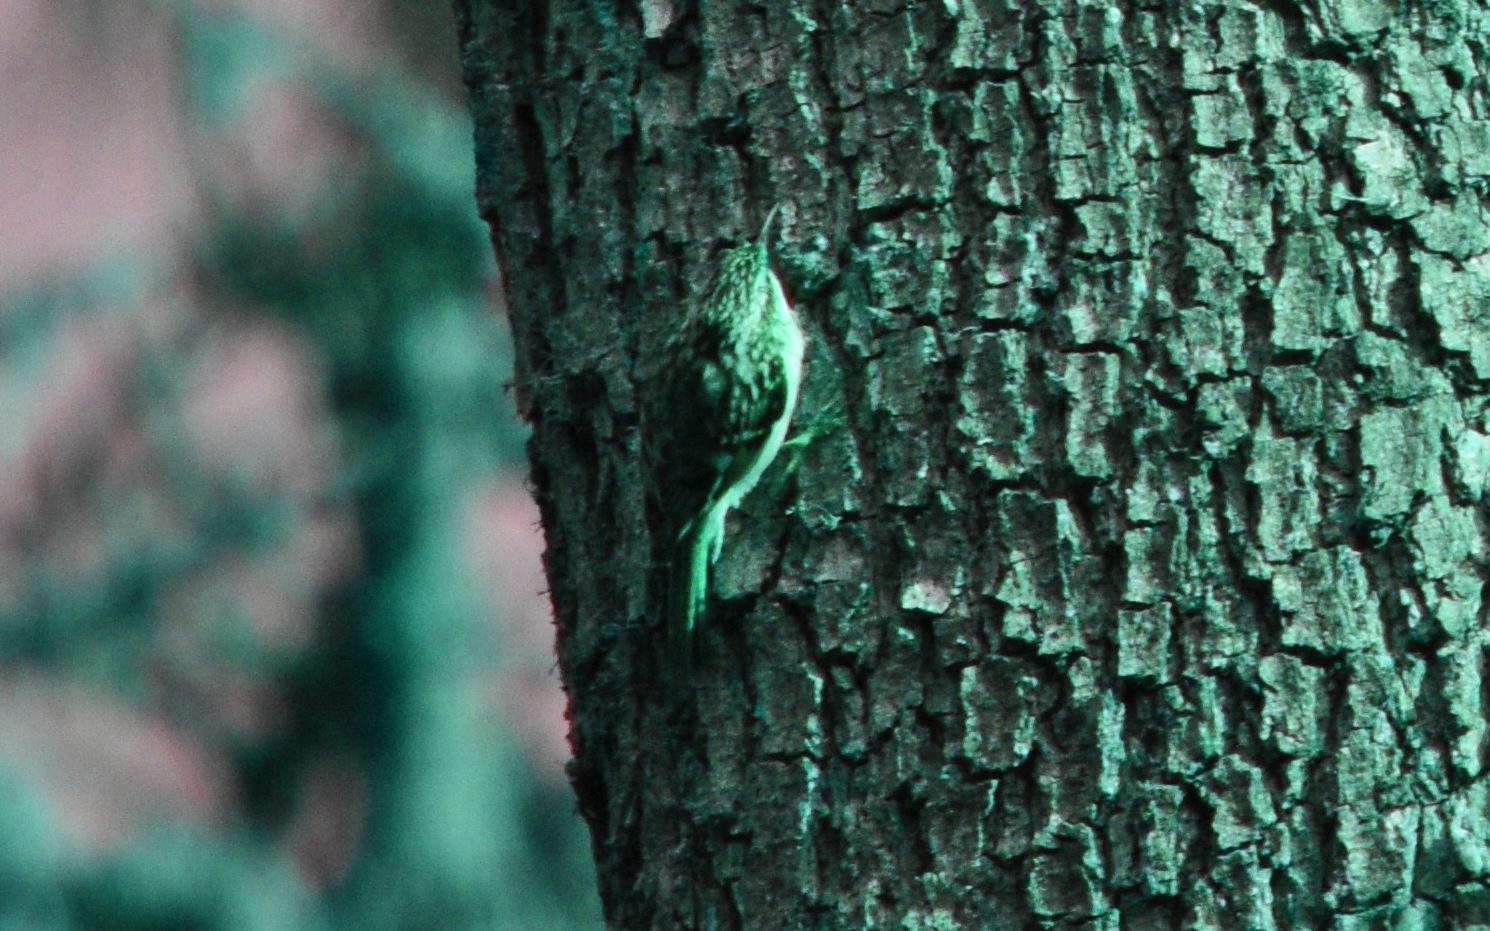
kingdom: Animalia
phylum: Chordata
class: Aves
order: Passeriformes
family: Certhiidae
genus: Certhia
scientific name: Certhia americana
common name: Brown creeper
